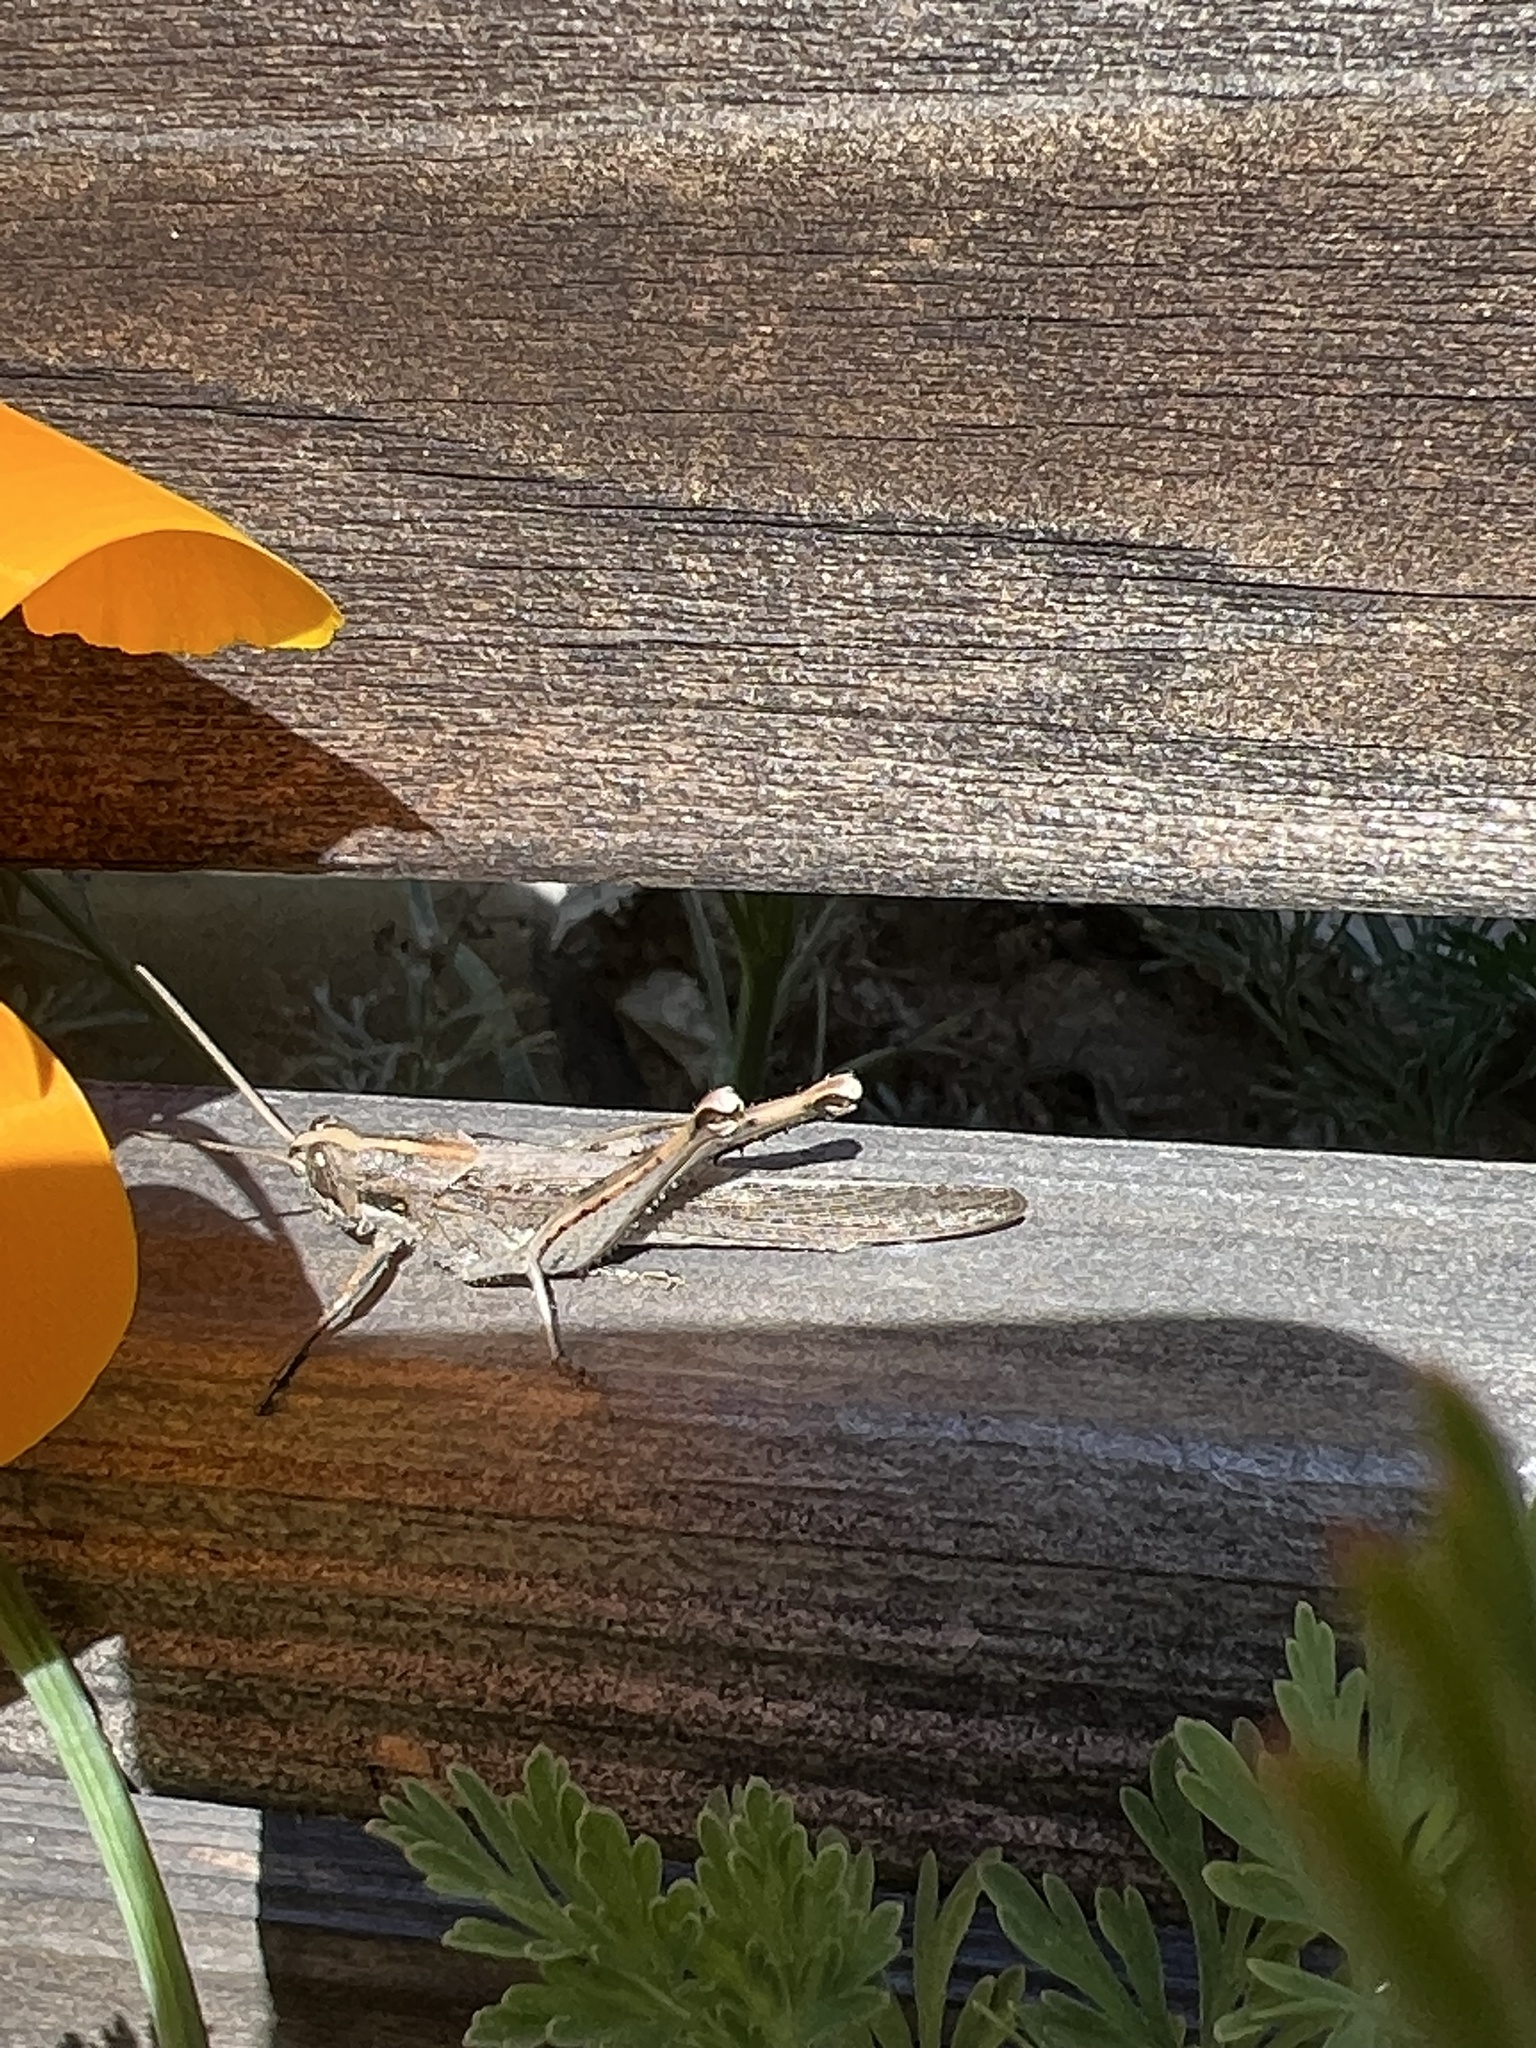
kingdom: Animalia
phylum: Arthropoda
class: Insecta
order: Orthoptera
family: Acrididae
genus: Schistocerca
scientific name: Schistocerca nitens
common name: Vagrant grasshopper
